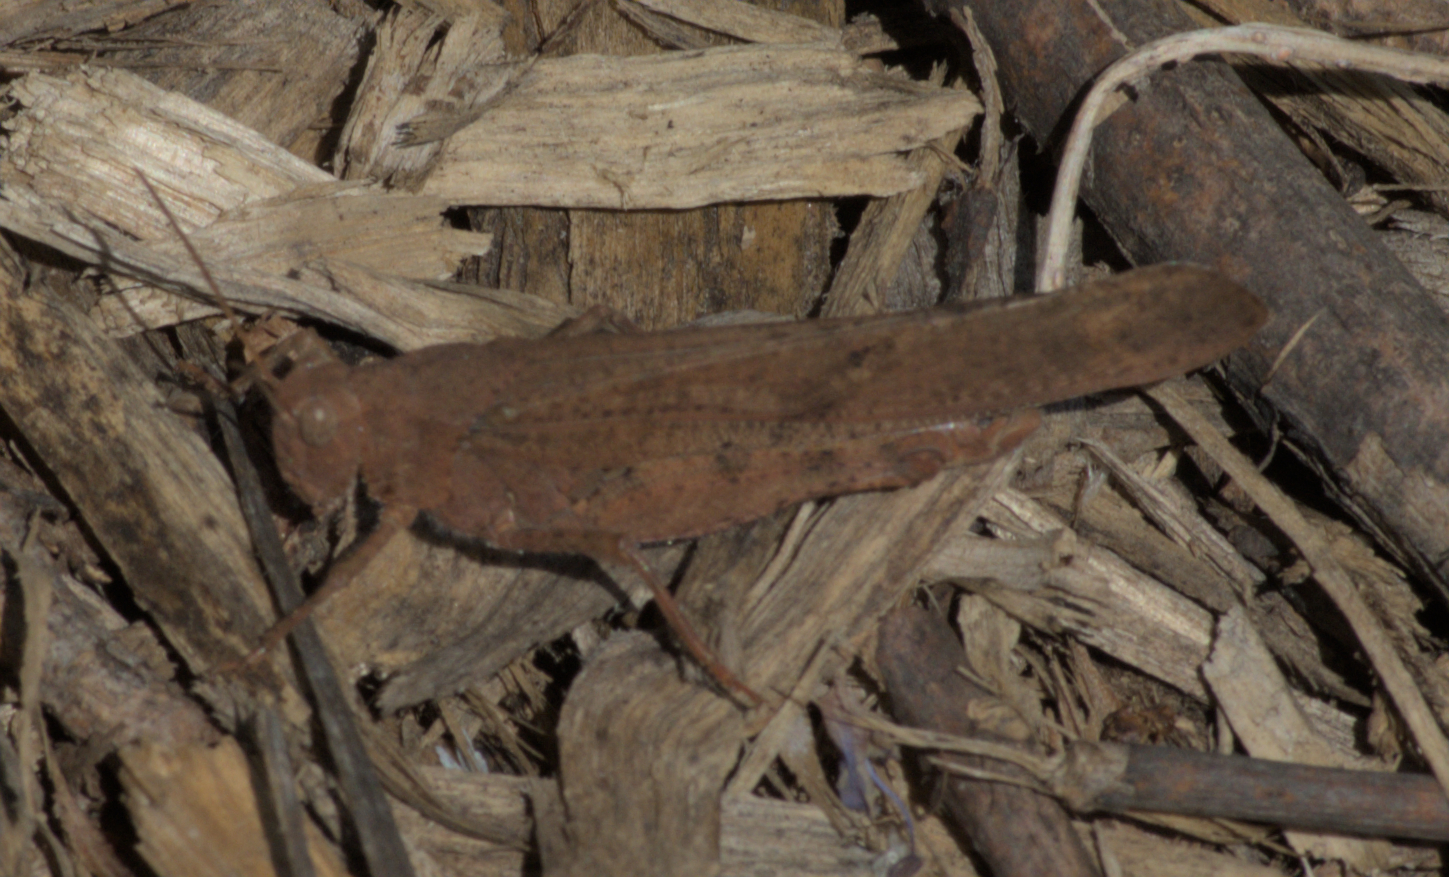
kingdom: Animalia
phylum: Arthropoda
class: Insecta
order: Orthoptera
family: Acrididae
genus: Dissosteira
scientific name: Dissosteira carolina
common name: Carolina grasshopper
